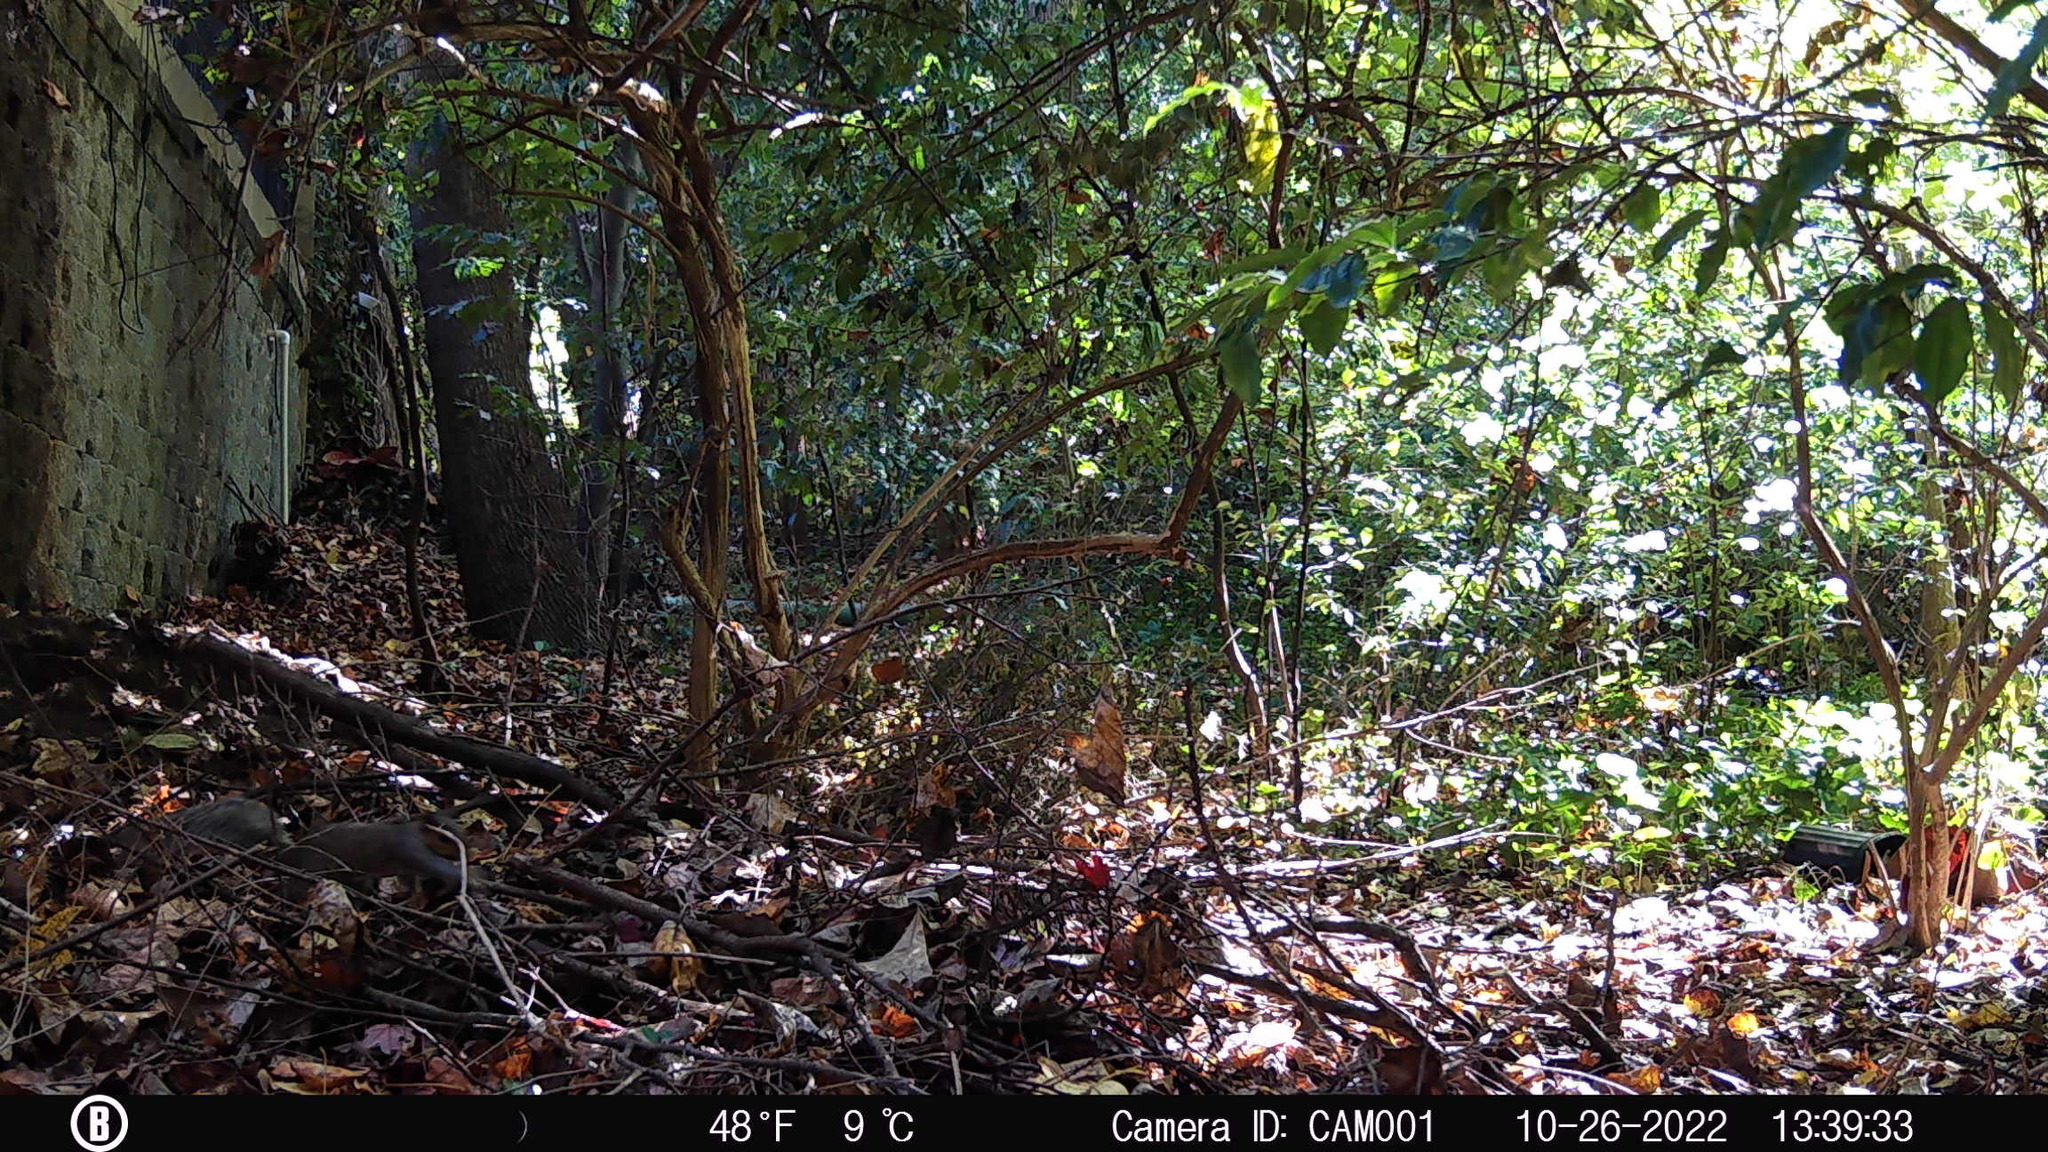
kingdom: Animalia
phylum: Chordata
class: Mammalia
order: Rodentia
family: Sciuridae
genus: Sciurus
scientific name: Sciurus carolinensis
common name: Eastern gray squirrel
